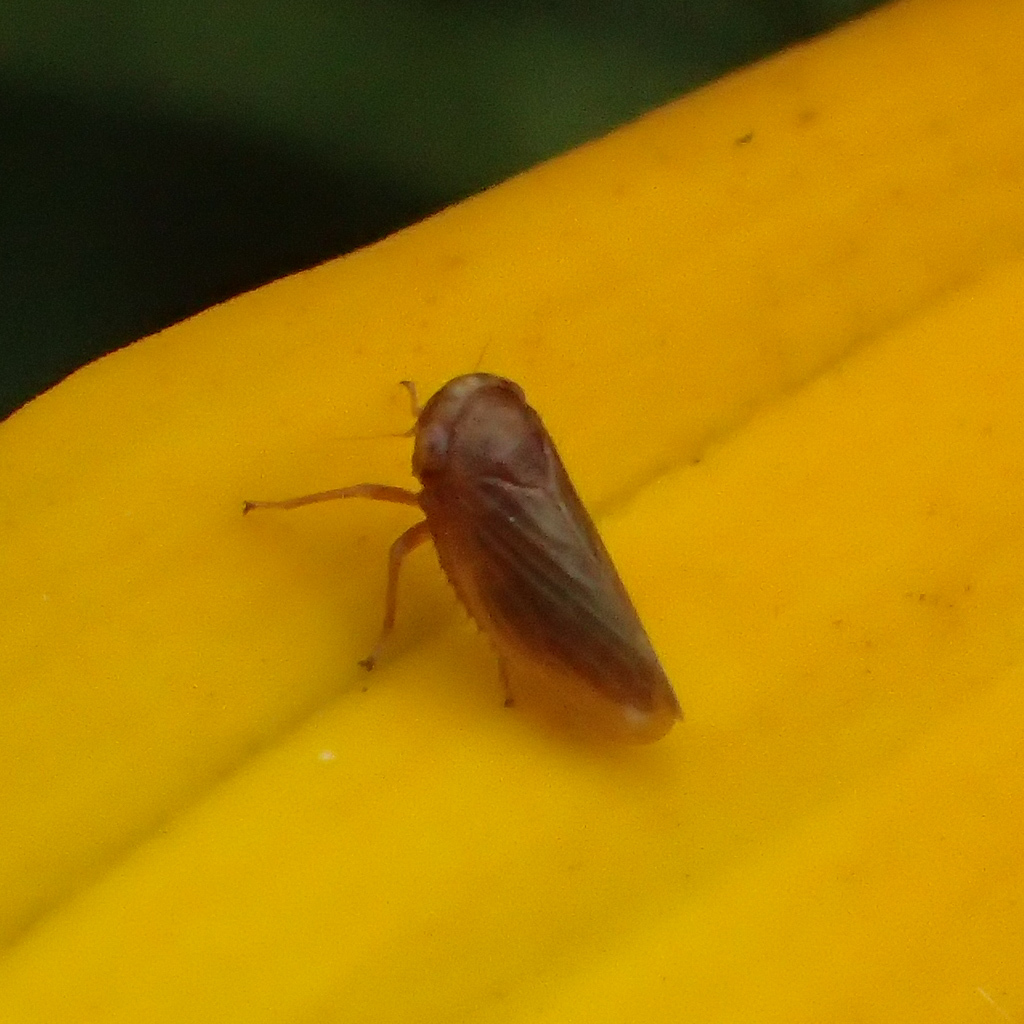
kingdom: Animalia
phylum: Arthropoda
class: Insecta
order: Hemiptera
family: Cicadellidae
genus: Agallia
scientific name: Agallia deleta
